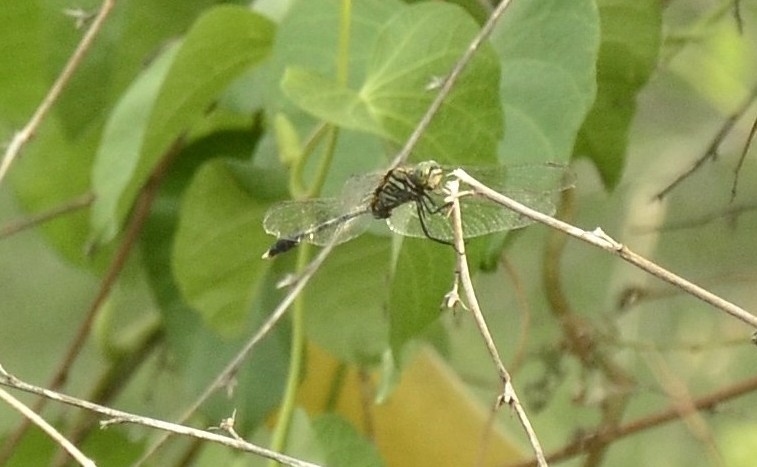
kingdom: Animalia
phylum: Arthropoda
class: Insecta
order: Odonata
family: Libellulidae
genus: Orthetrum
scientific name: Orthetrum sabina
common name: Slender skimmer
